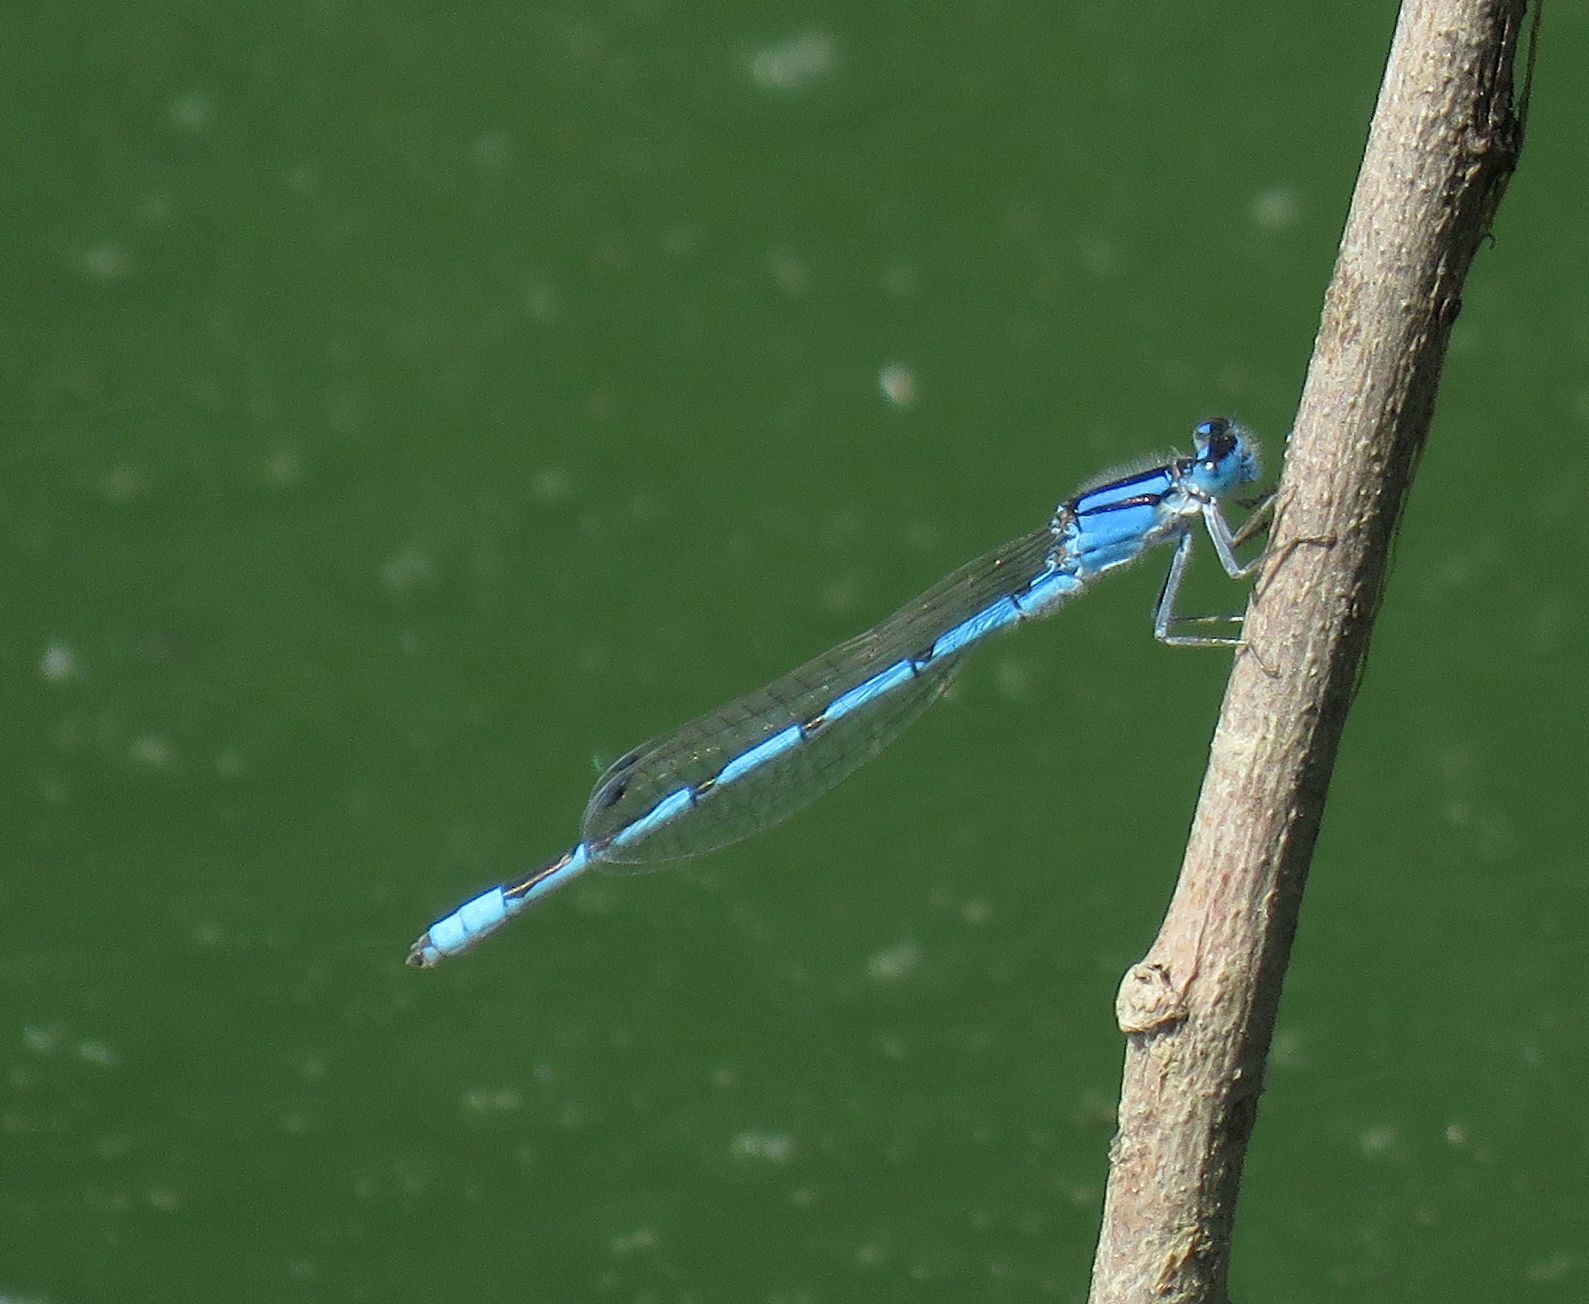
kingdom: Animalia
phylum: Arthropoda
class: Insecta
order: Odonata
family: Coenagrionidae
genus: Enallagma
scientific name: Enallagma civile
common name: Damselfly
